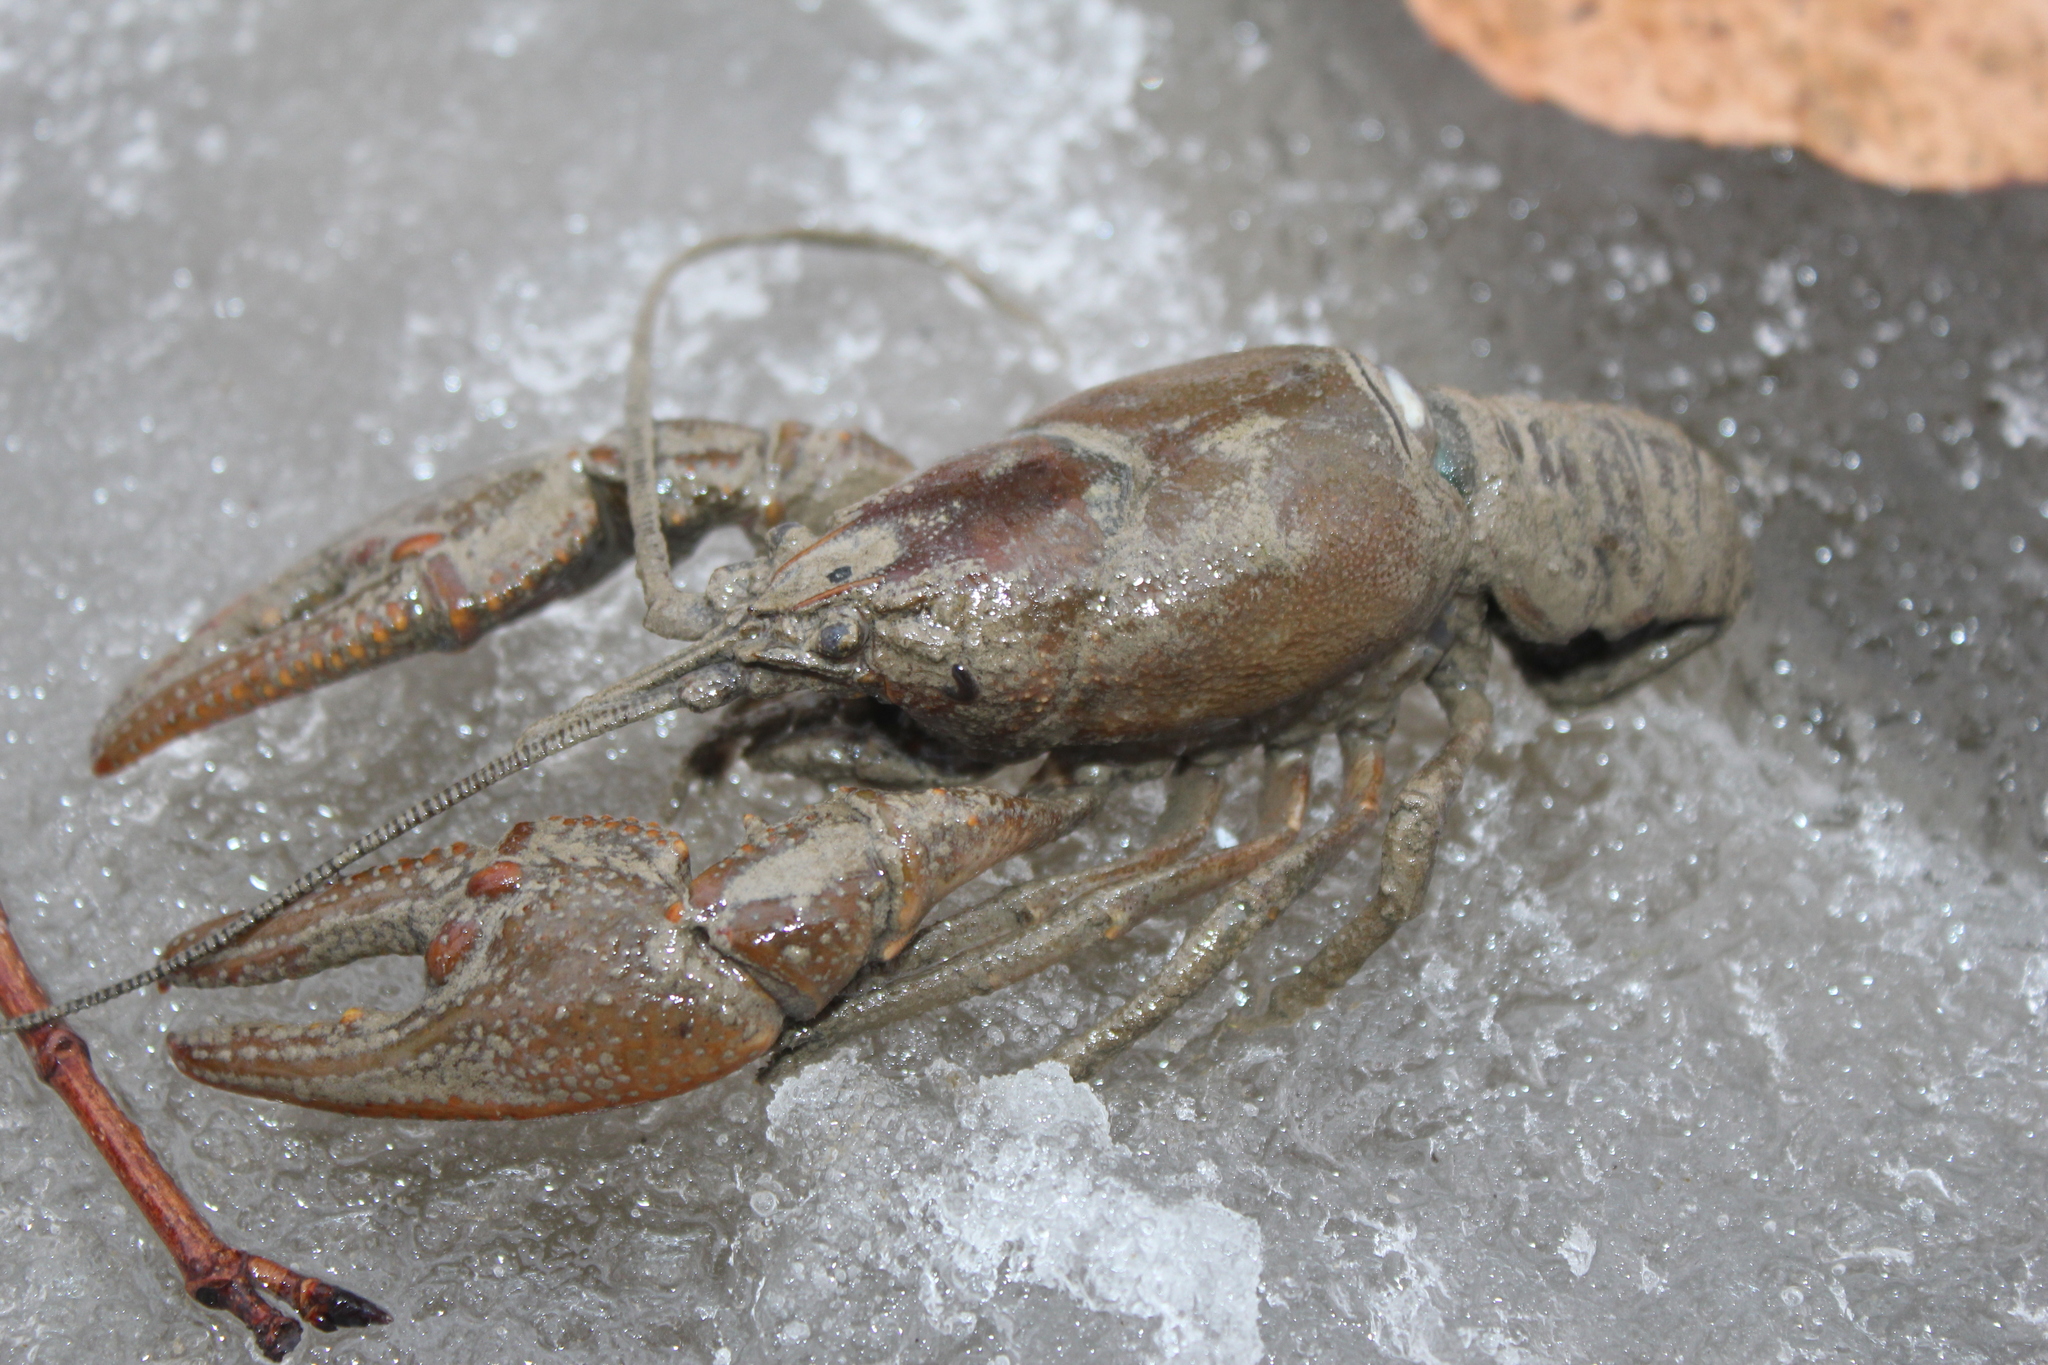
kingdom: Animalia
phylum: Arthropoda
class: Malacostraca
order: Decapoda
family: Cambaridae
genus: Cambarus
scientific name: Cambarus robustus
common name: Big water crayfish
